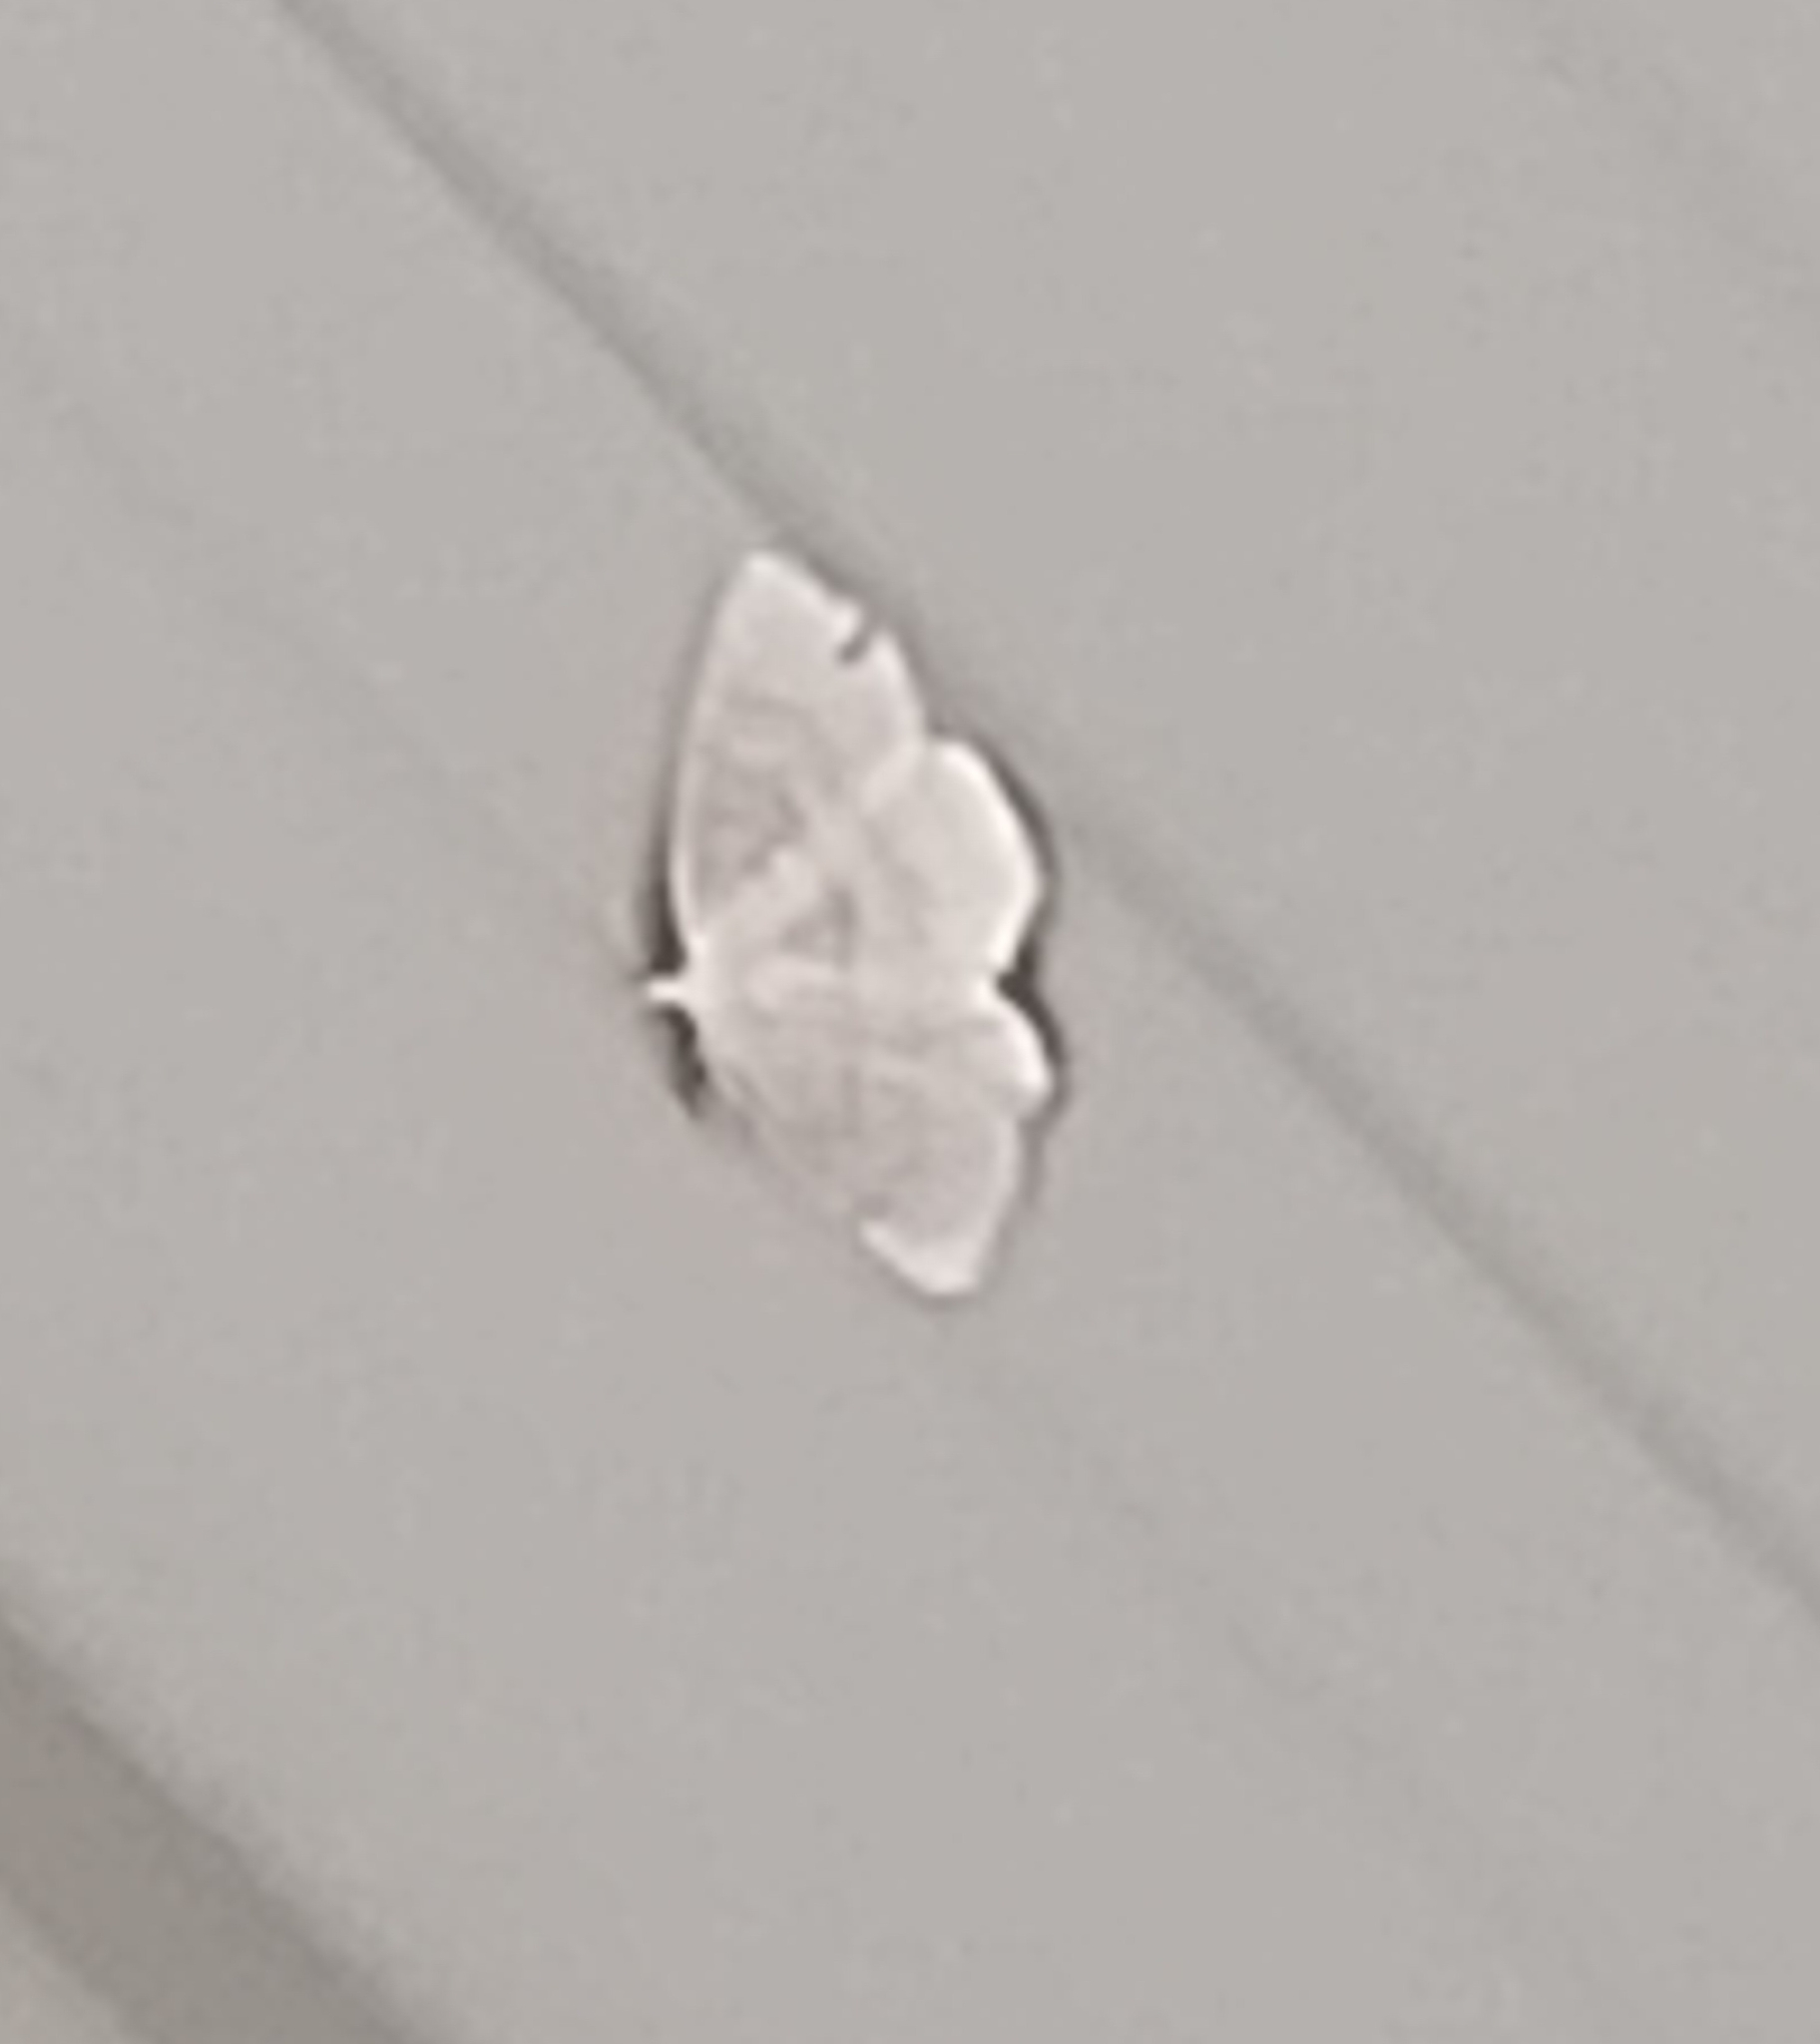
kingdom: Animalia
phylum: Arthropoda
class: Insecta
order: Lepidoptera
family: Geometridae
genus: Cabera
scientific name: Cabera exanthemata
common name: Common wave
